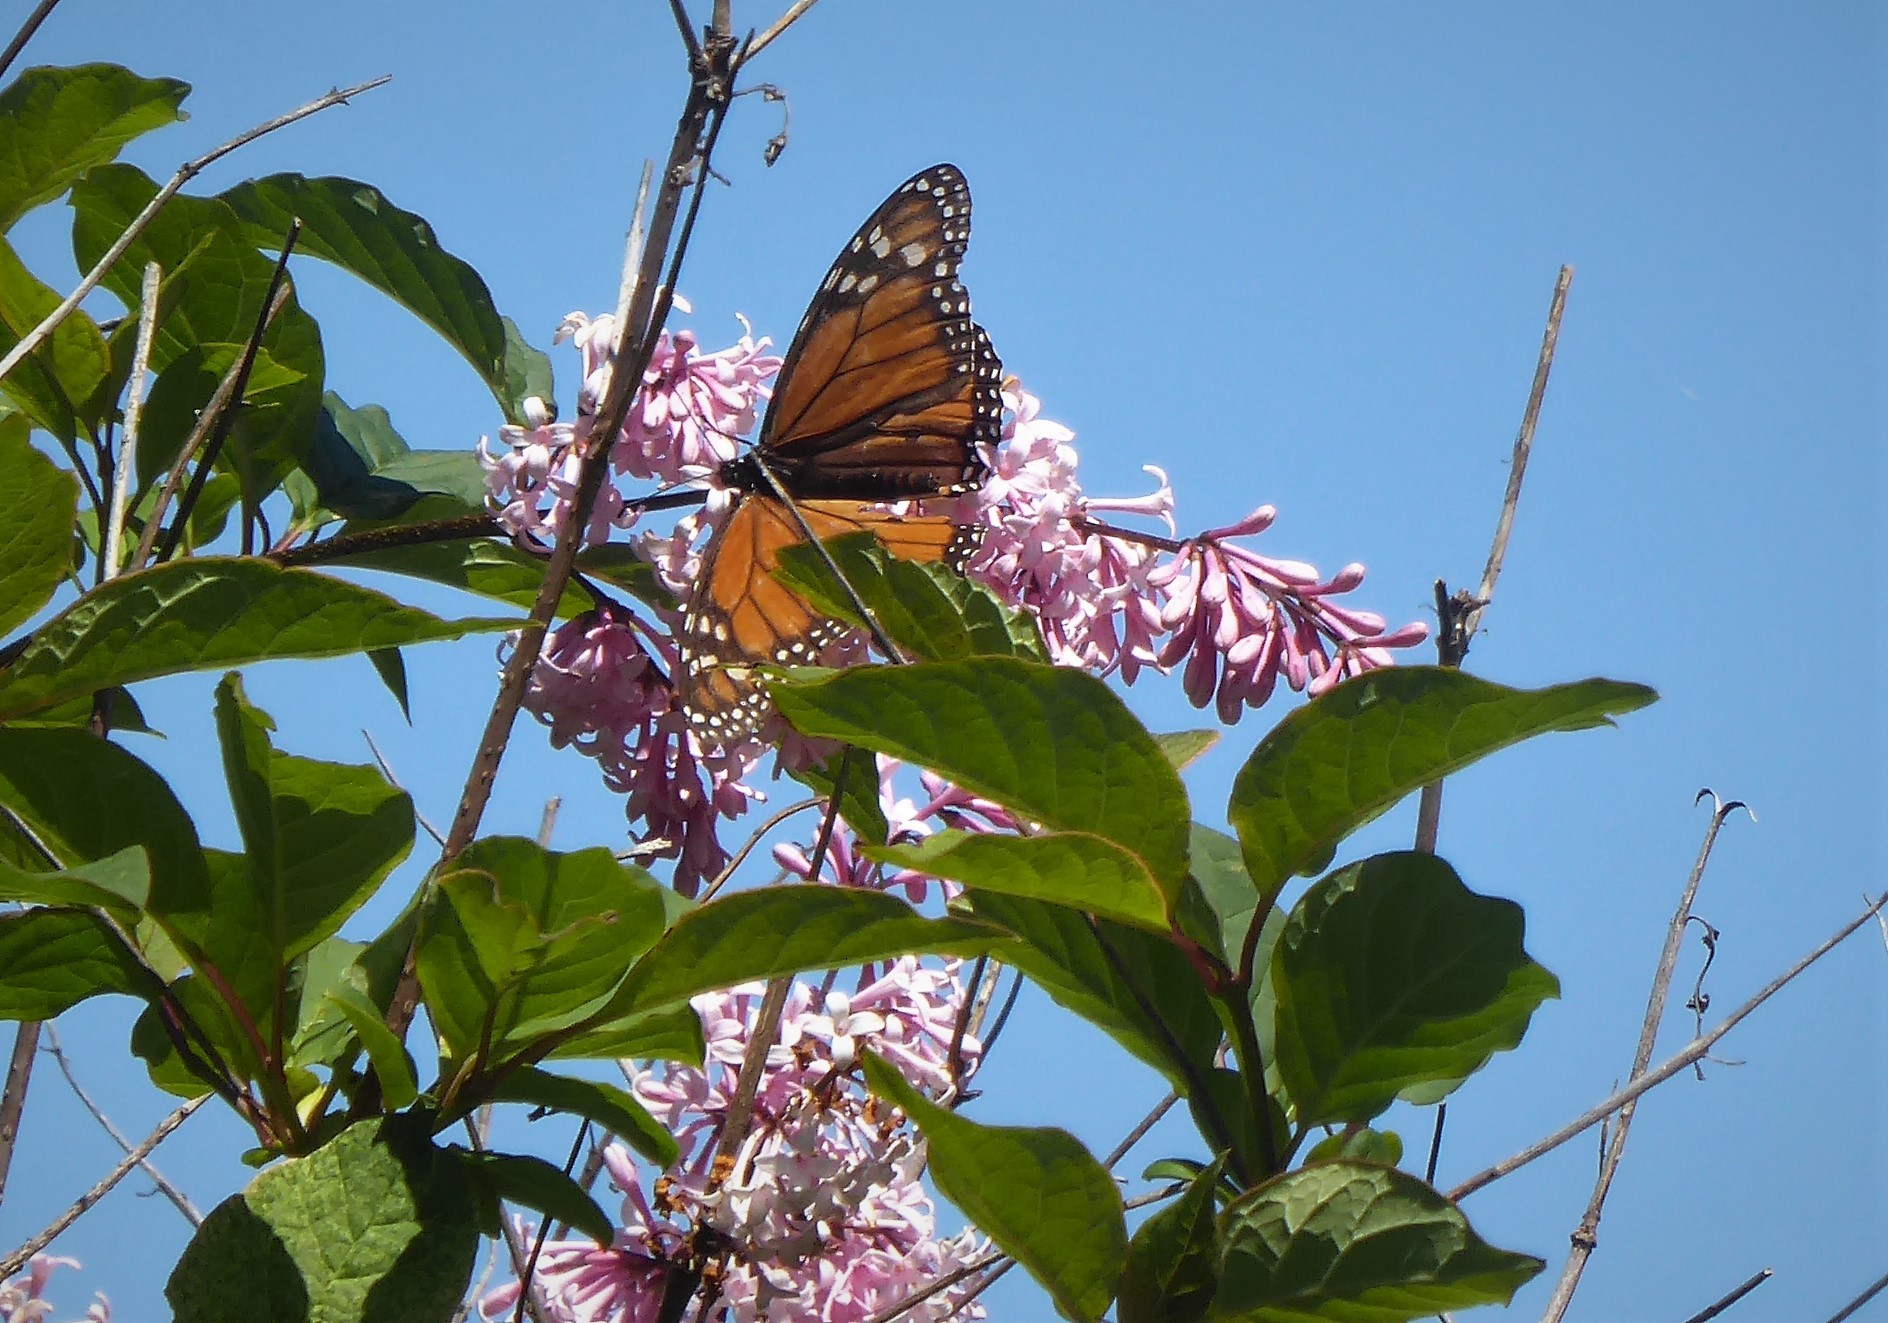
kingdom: Animalia
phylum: Arthropoda
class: Insecta
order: Lepidoptera
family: Nymphalidae
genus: Danaus
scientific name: Danaus plexippus
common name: Monarch
